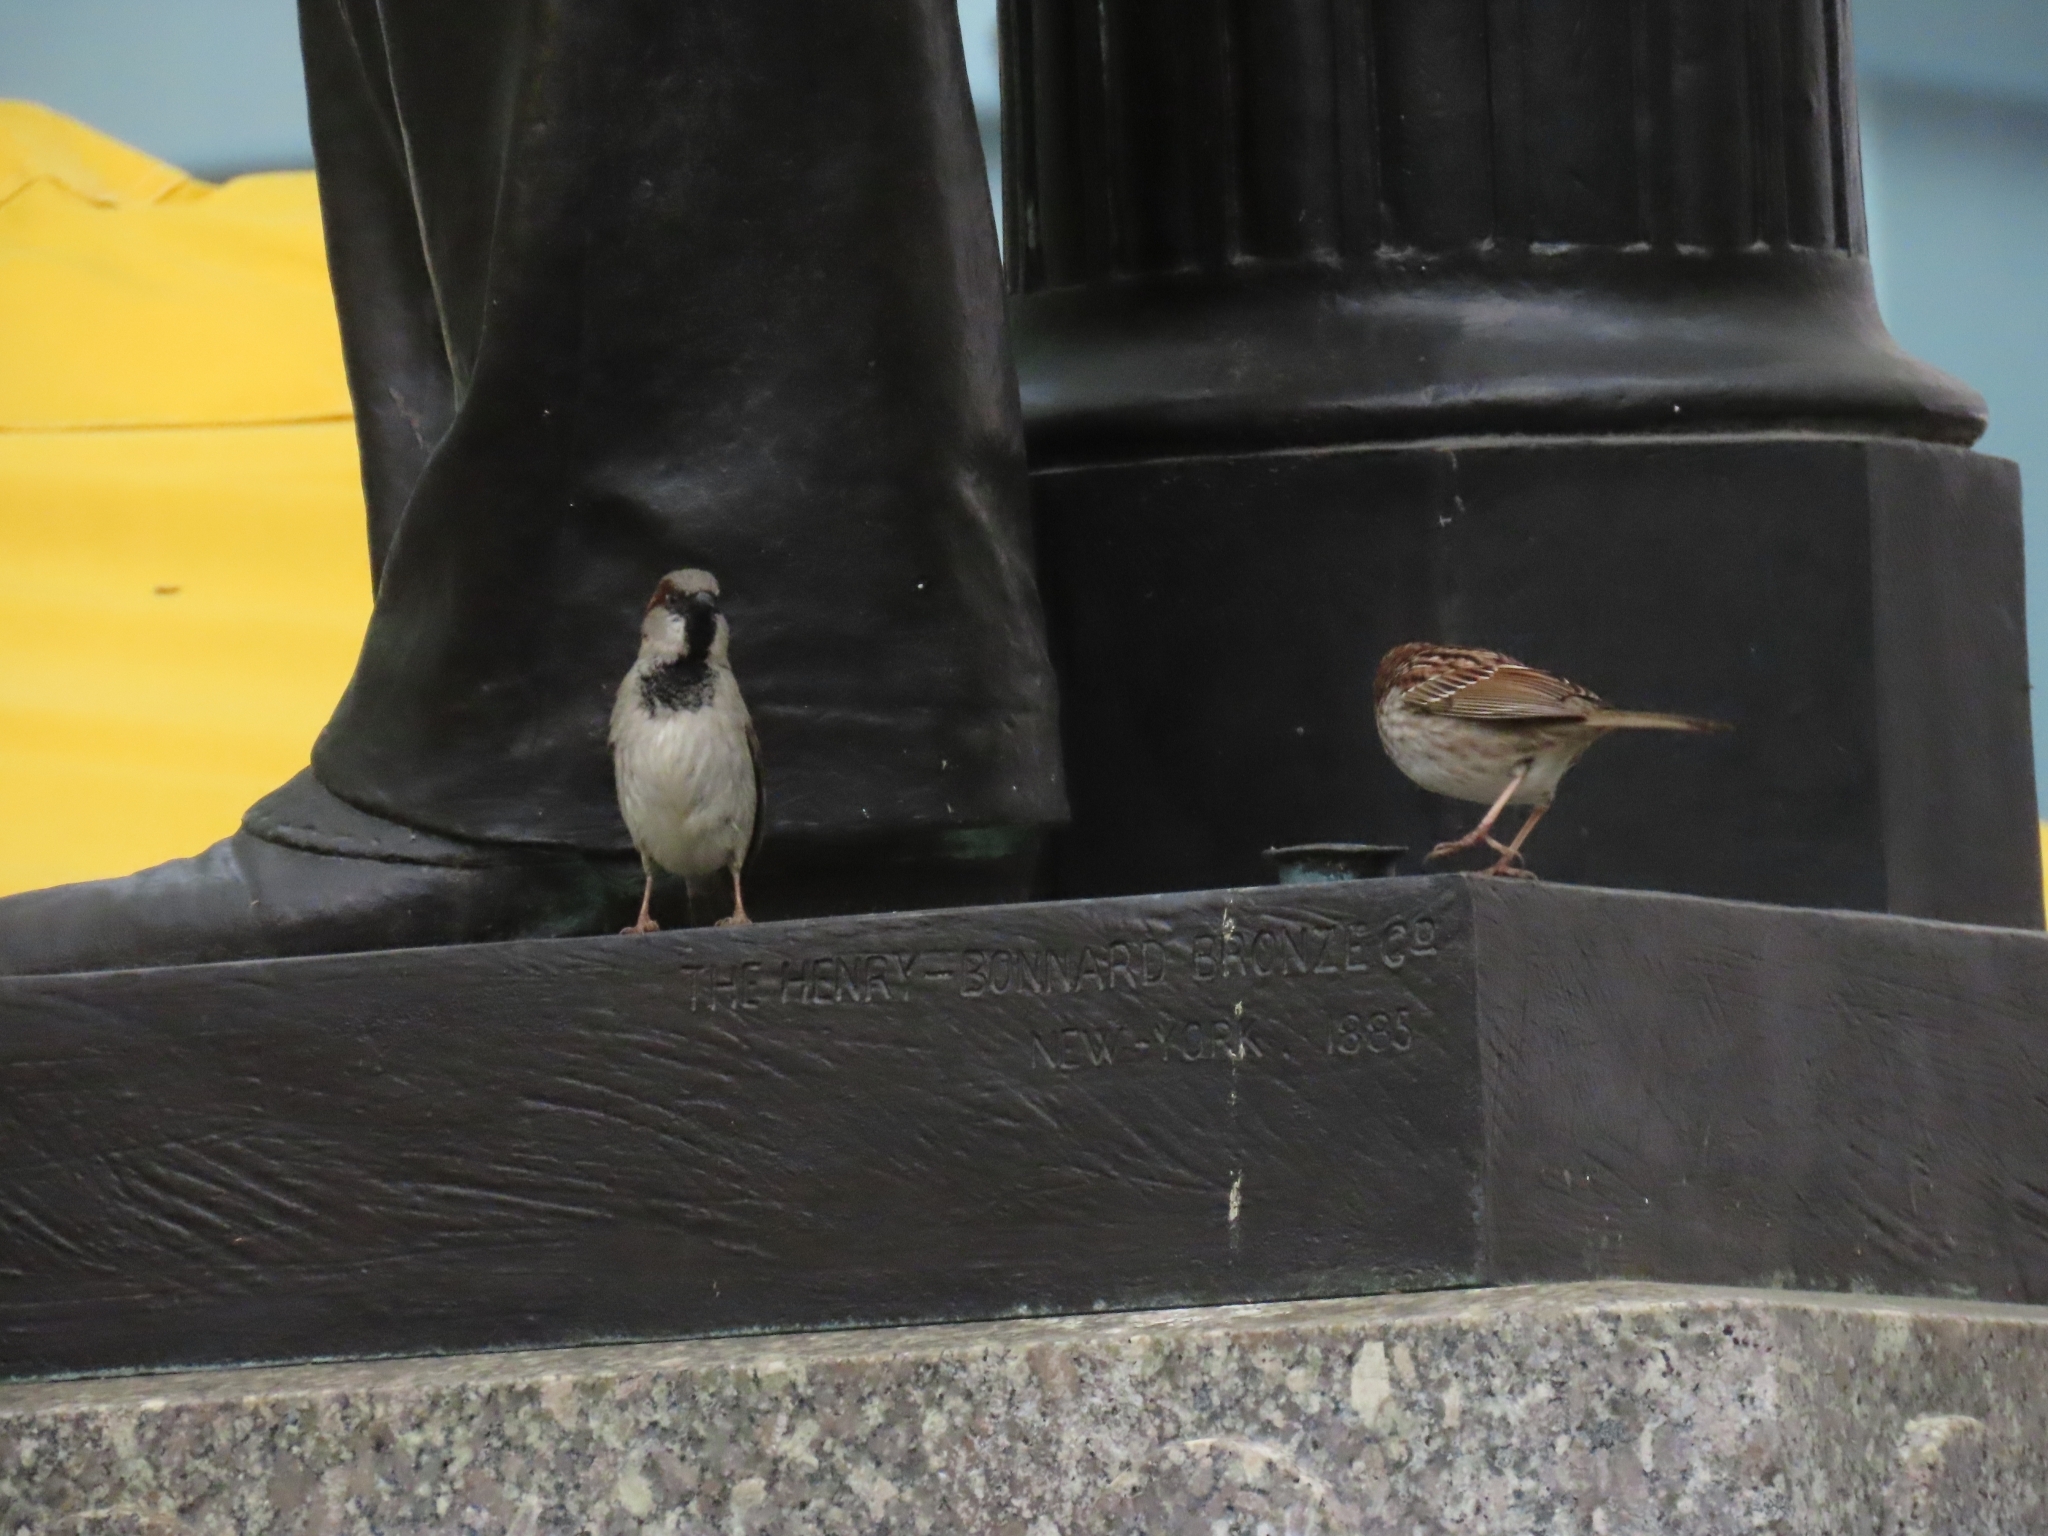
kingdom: Animalia
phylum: Chordata
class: Aves
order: Passeriformes
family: Passeridae
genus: Passer
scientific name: Passer domesticus
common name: House sparrow
